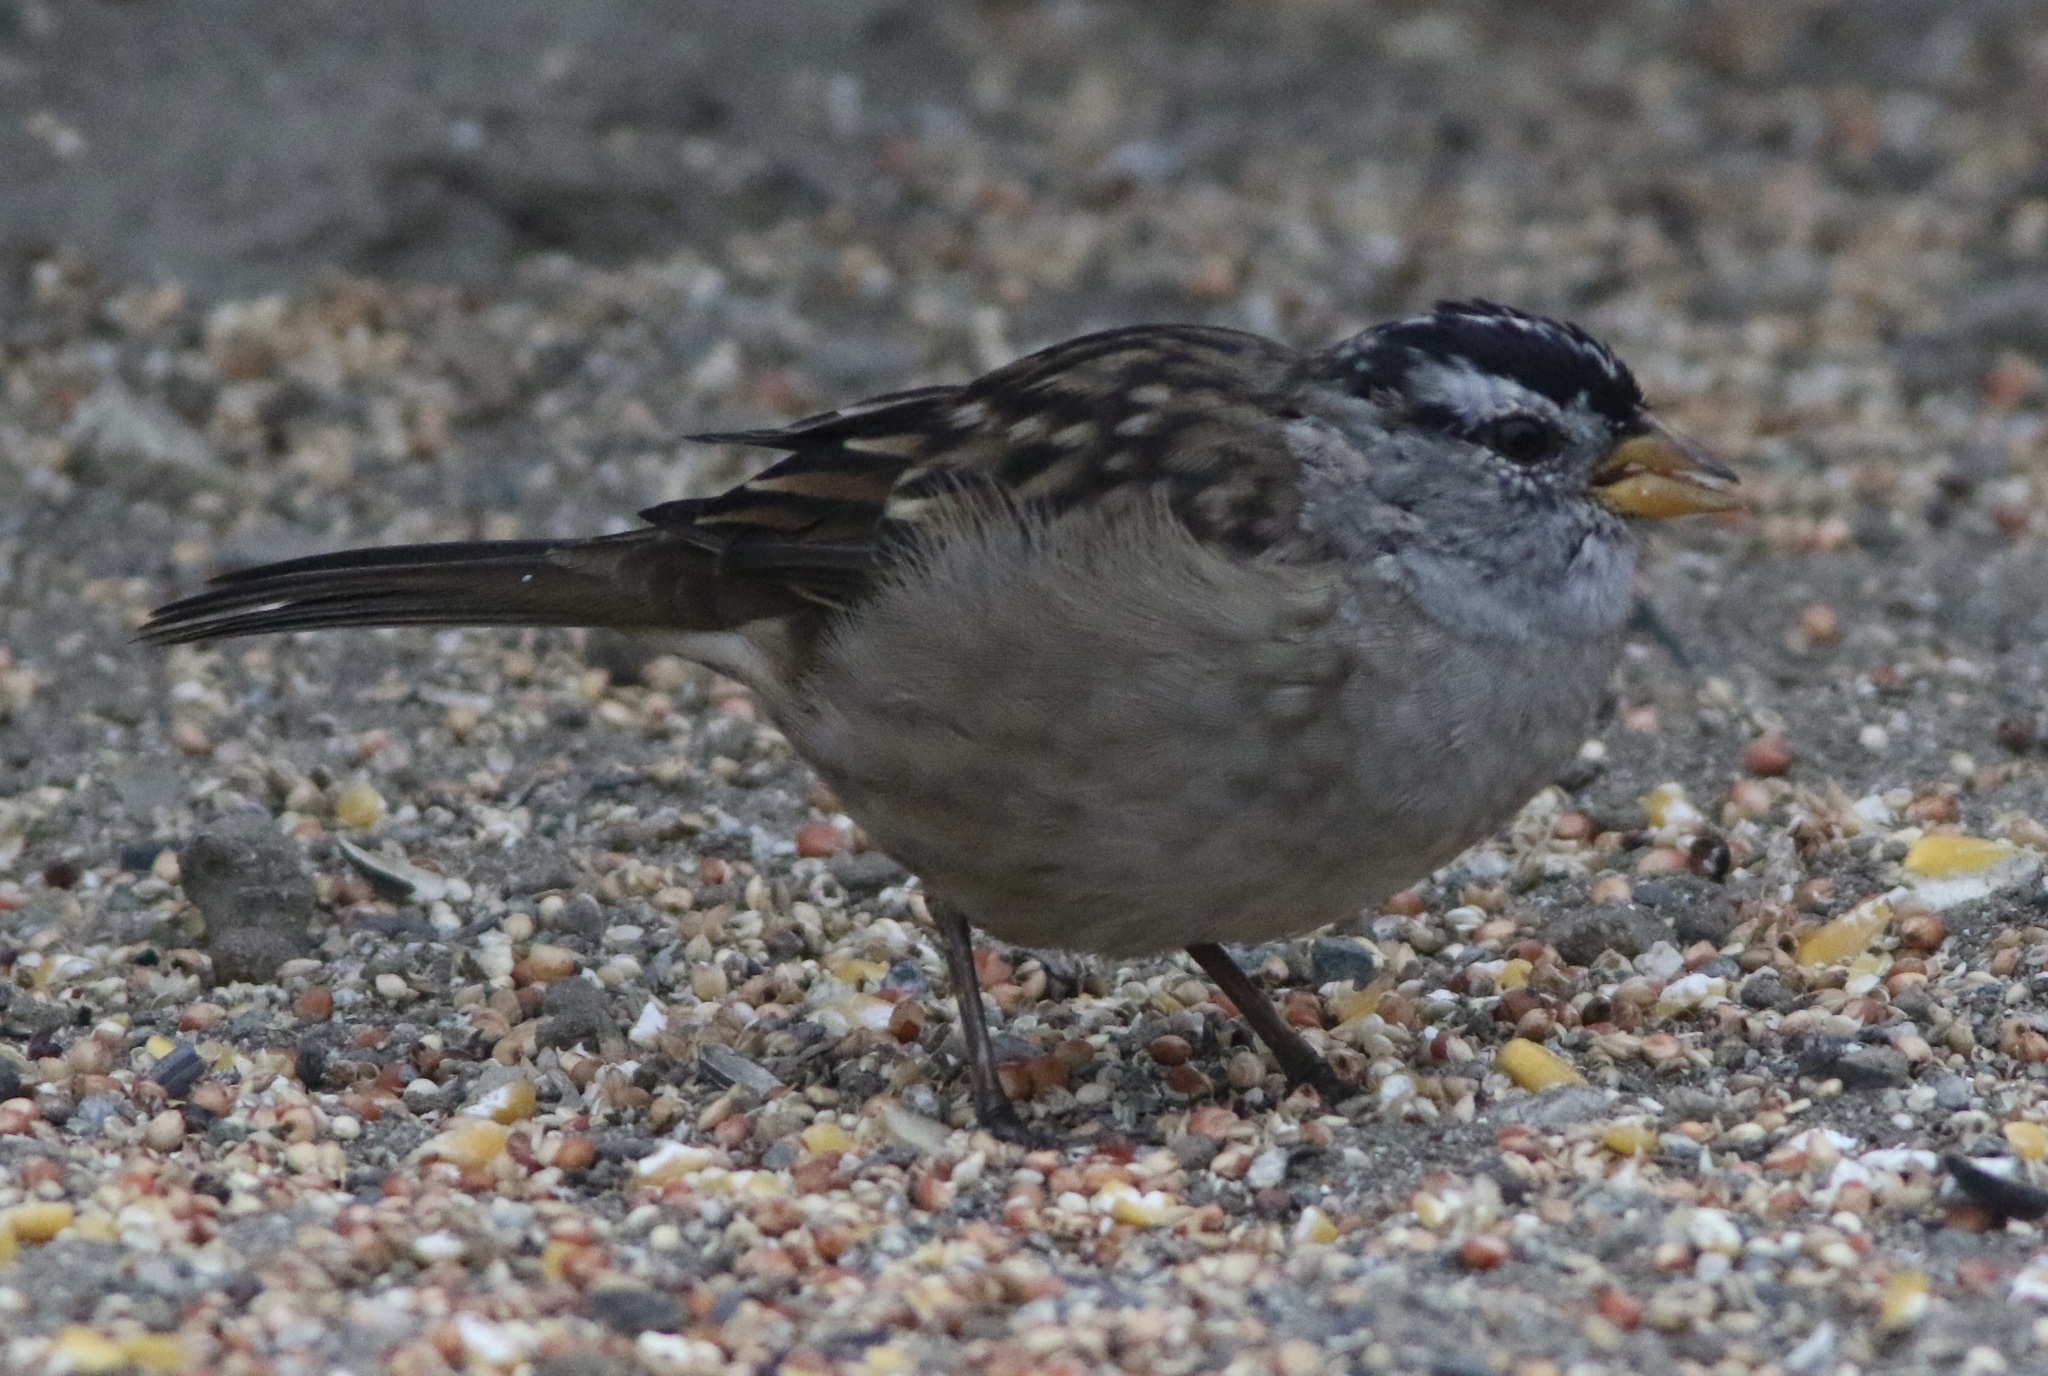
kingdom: Animalia
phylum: Chordata
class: Aves
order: Passeriformes
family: Passerellidae
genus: Zonotrichia
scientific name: Zonotrichia leucophrys
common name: White-crowned sparrow
